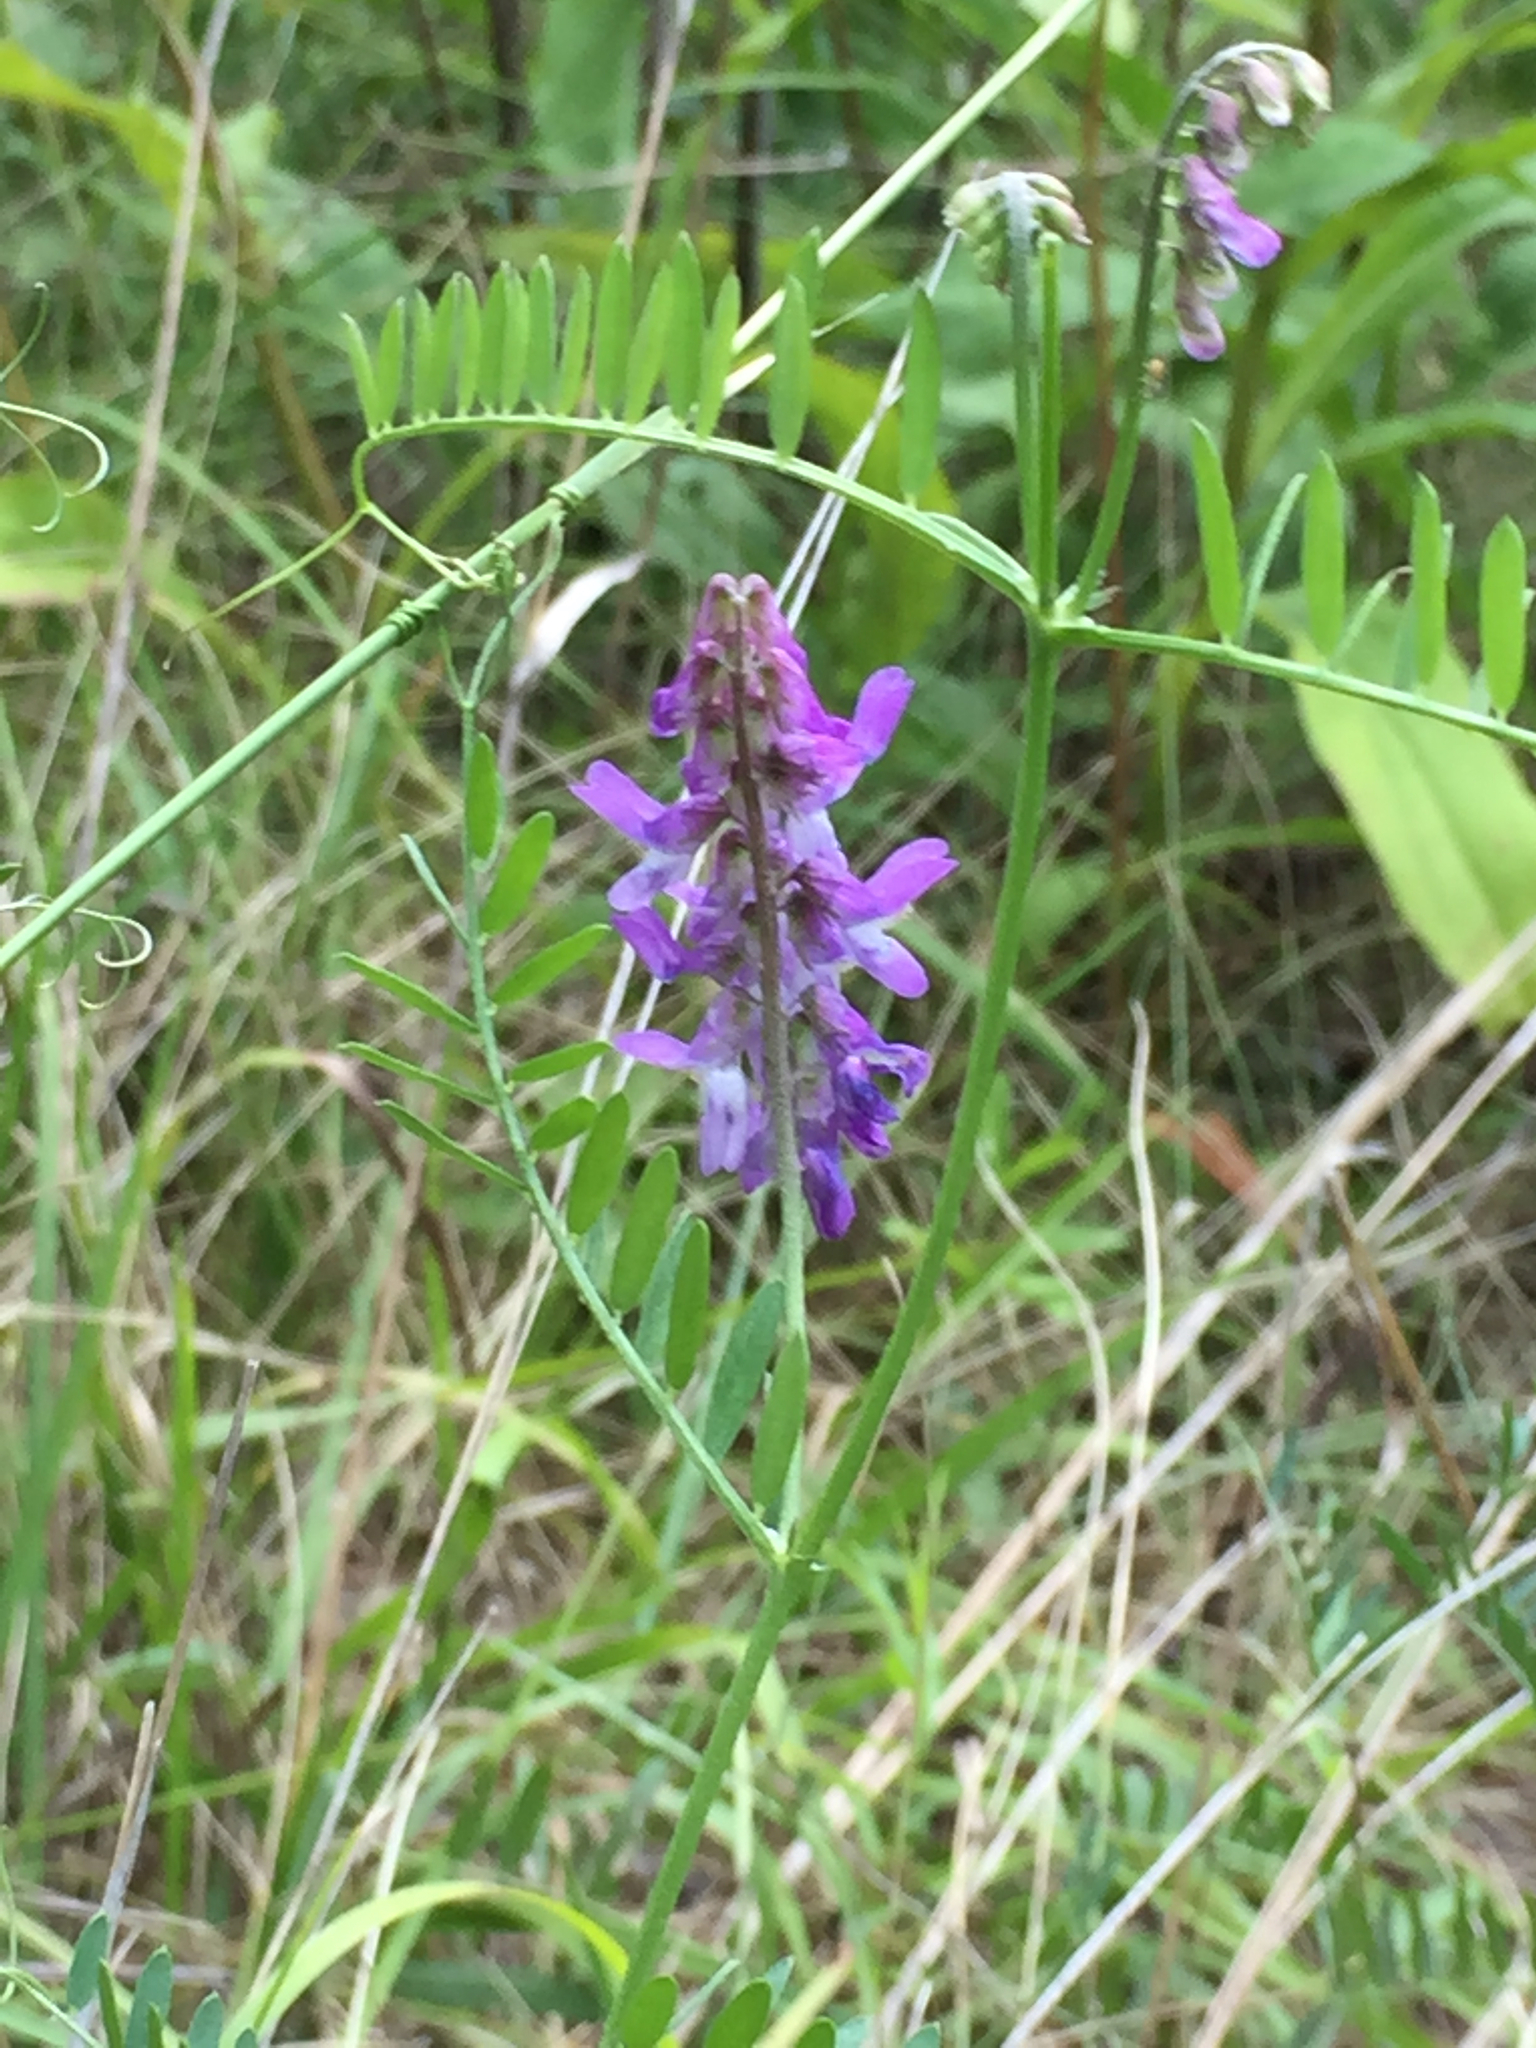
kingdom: Plantae
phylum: Tracheophyta
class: Magnoliopsida
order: Fabales
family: Fabaceae
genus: Vicia
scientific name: Vicia cracca
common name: Bird vetch
